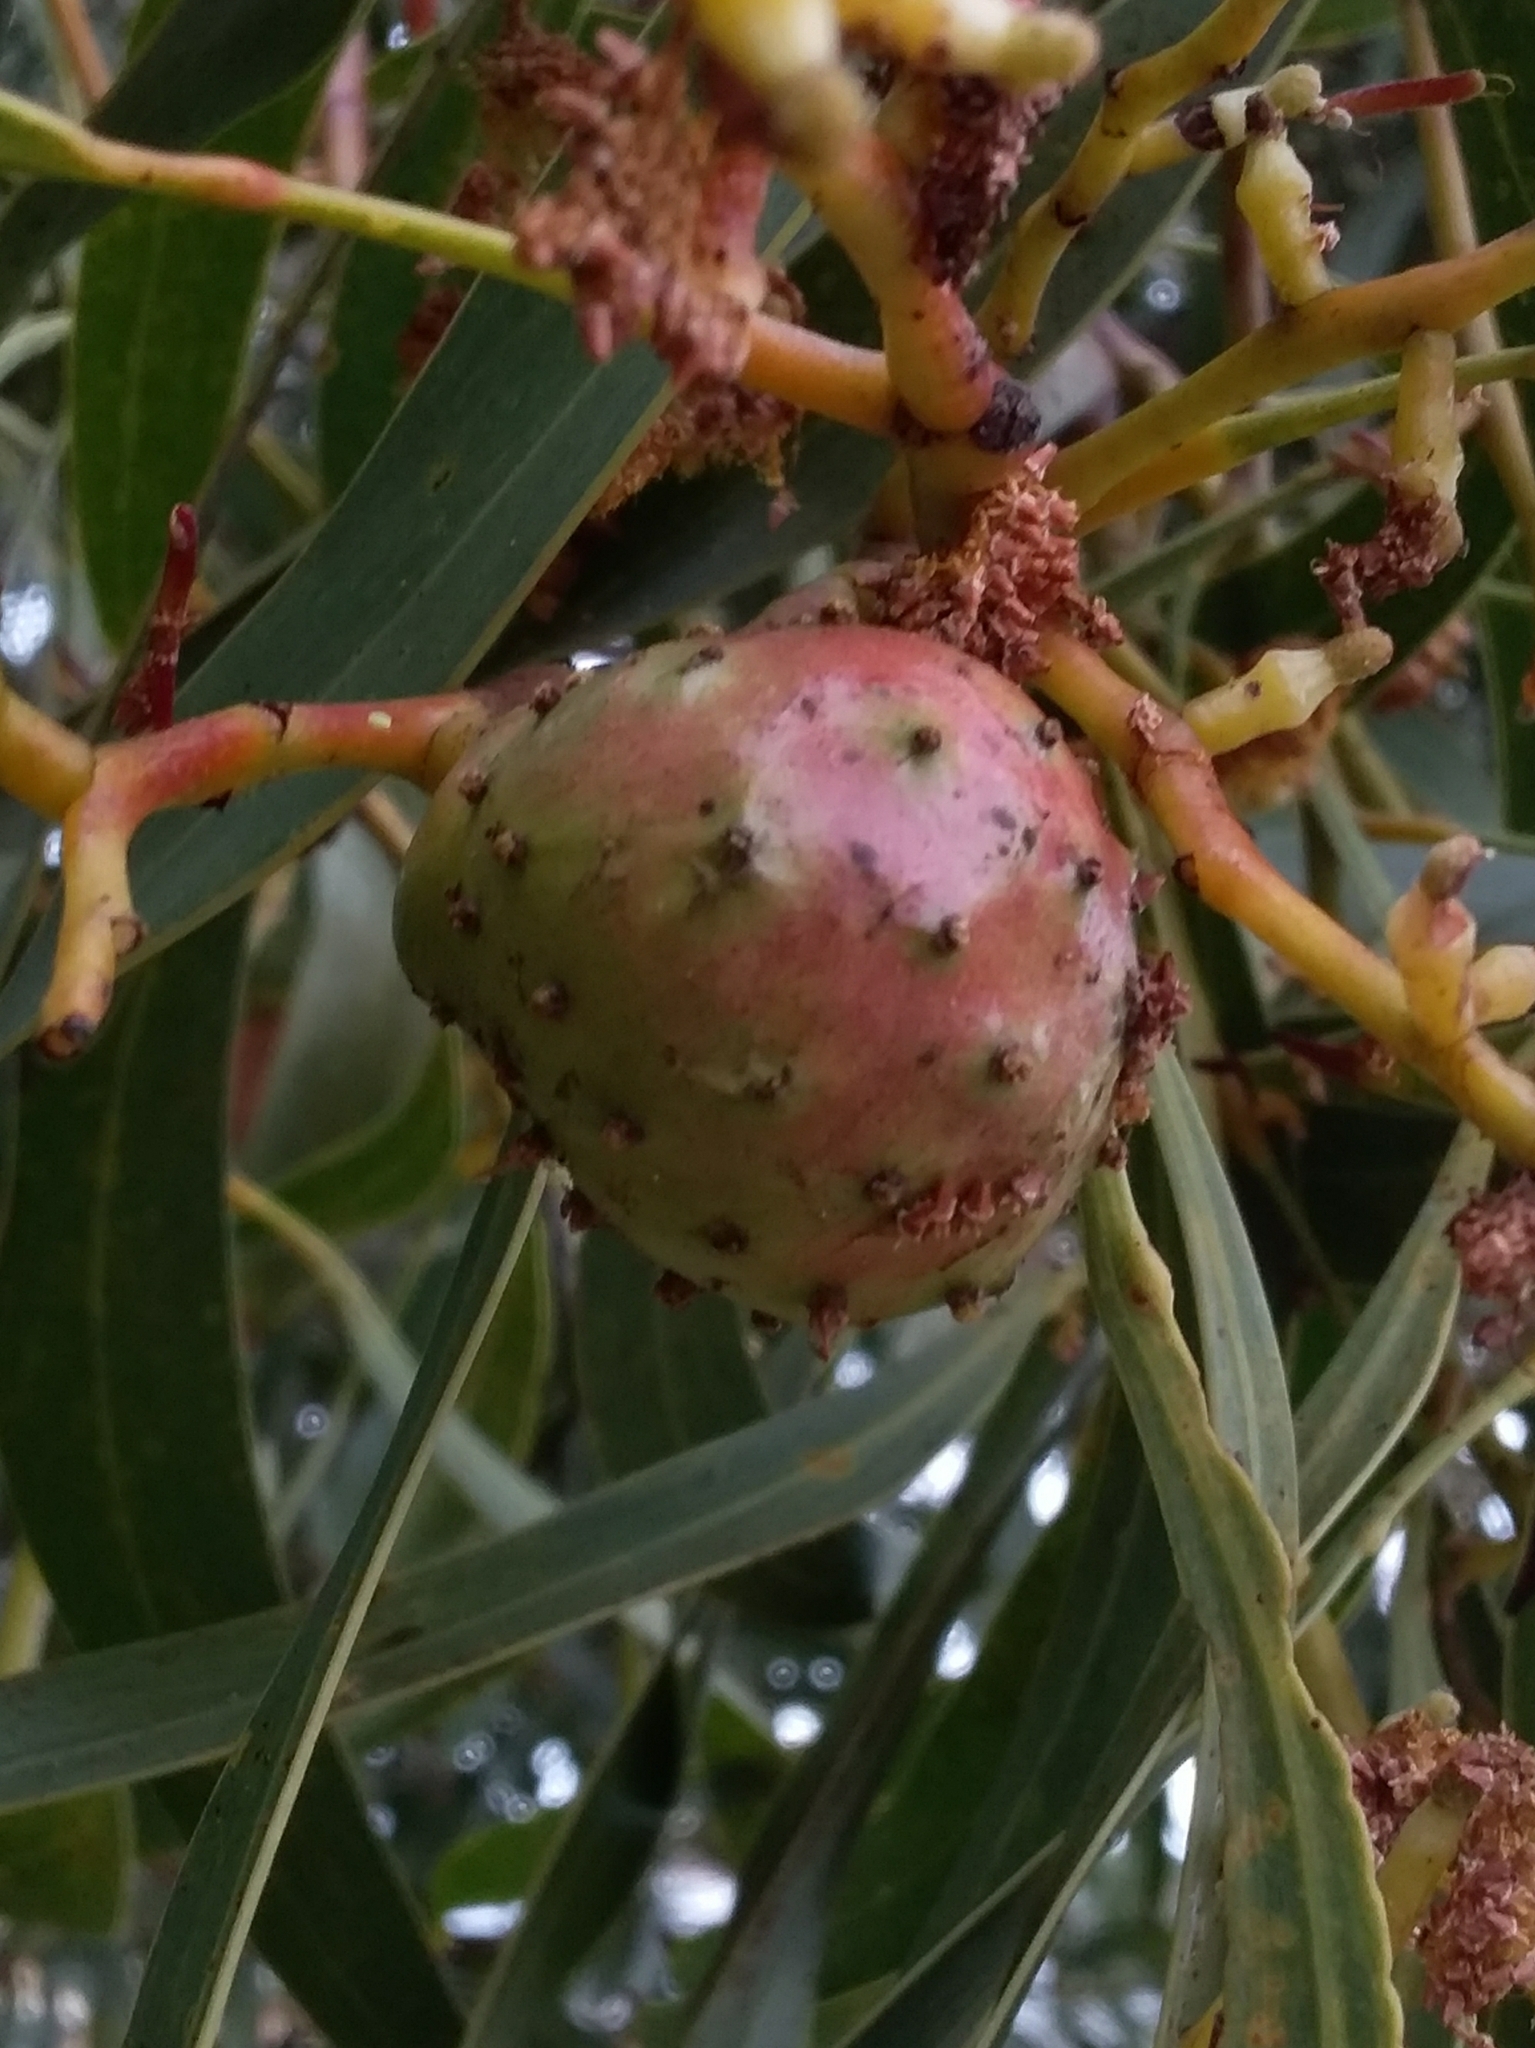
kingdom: Animalia
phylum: Arthropoda
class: Insecta
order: Hymenoptera
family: Pteromalidae
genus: Trichilogaster
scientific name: Trichilogaster signiventris
